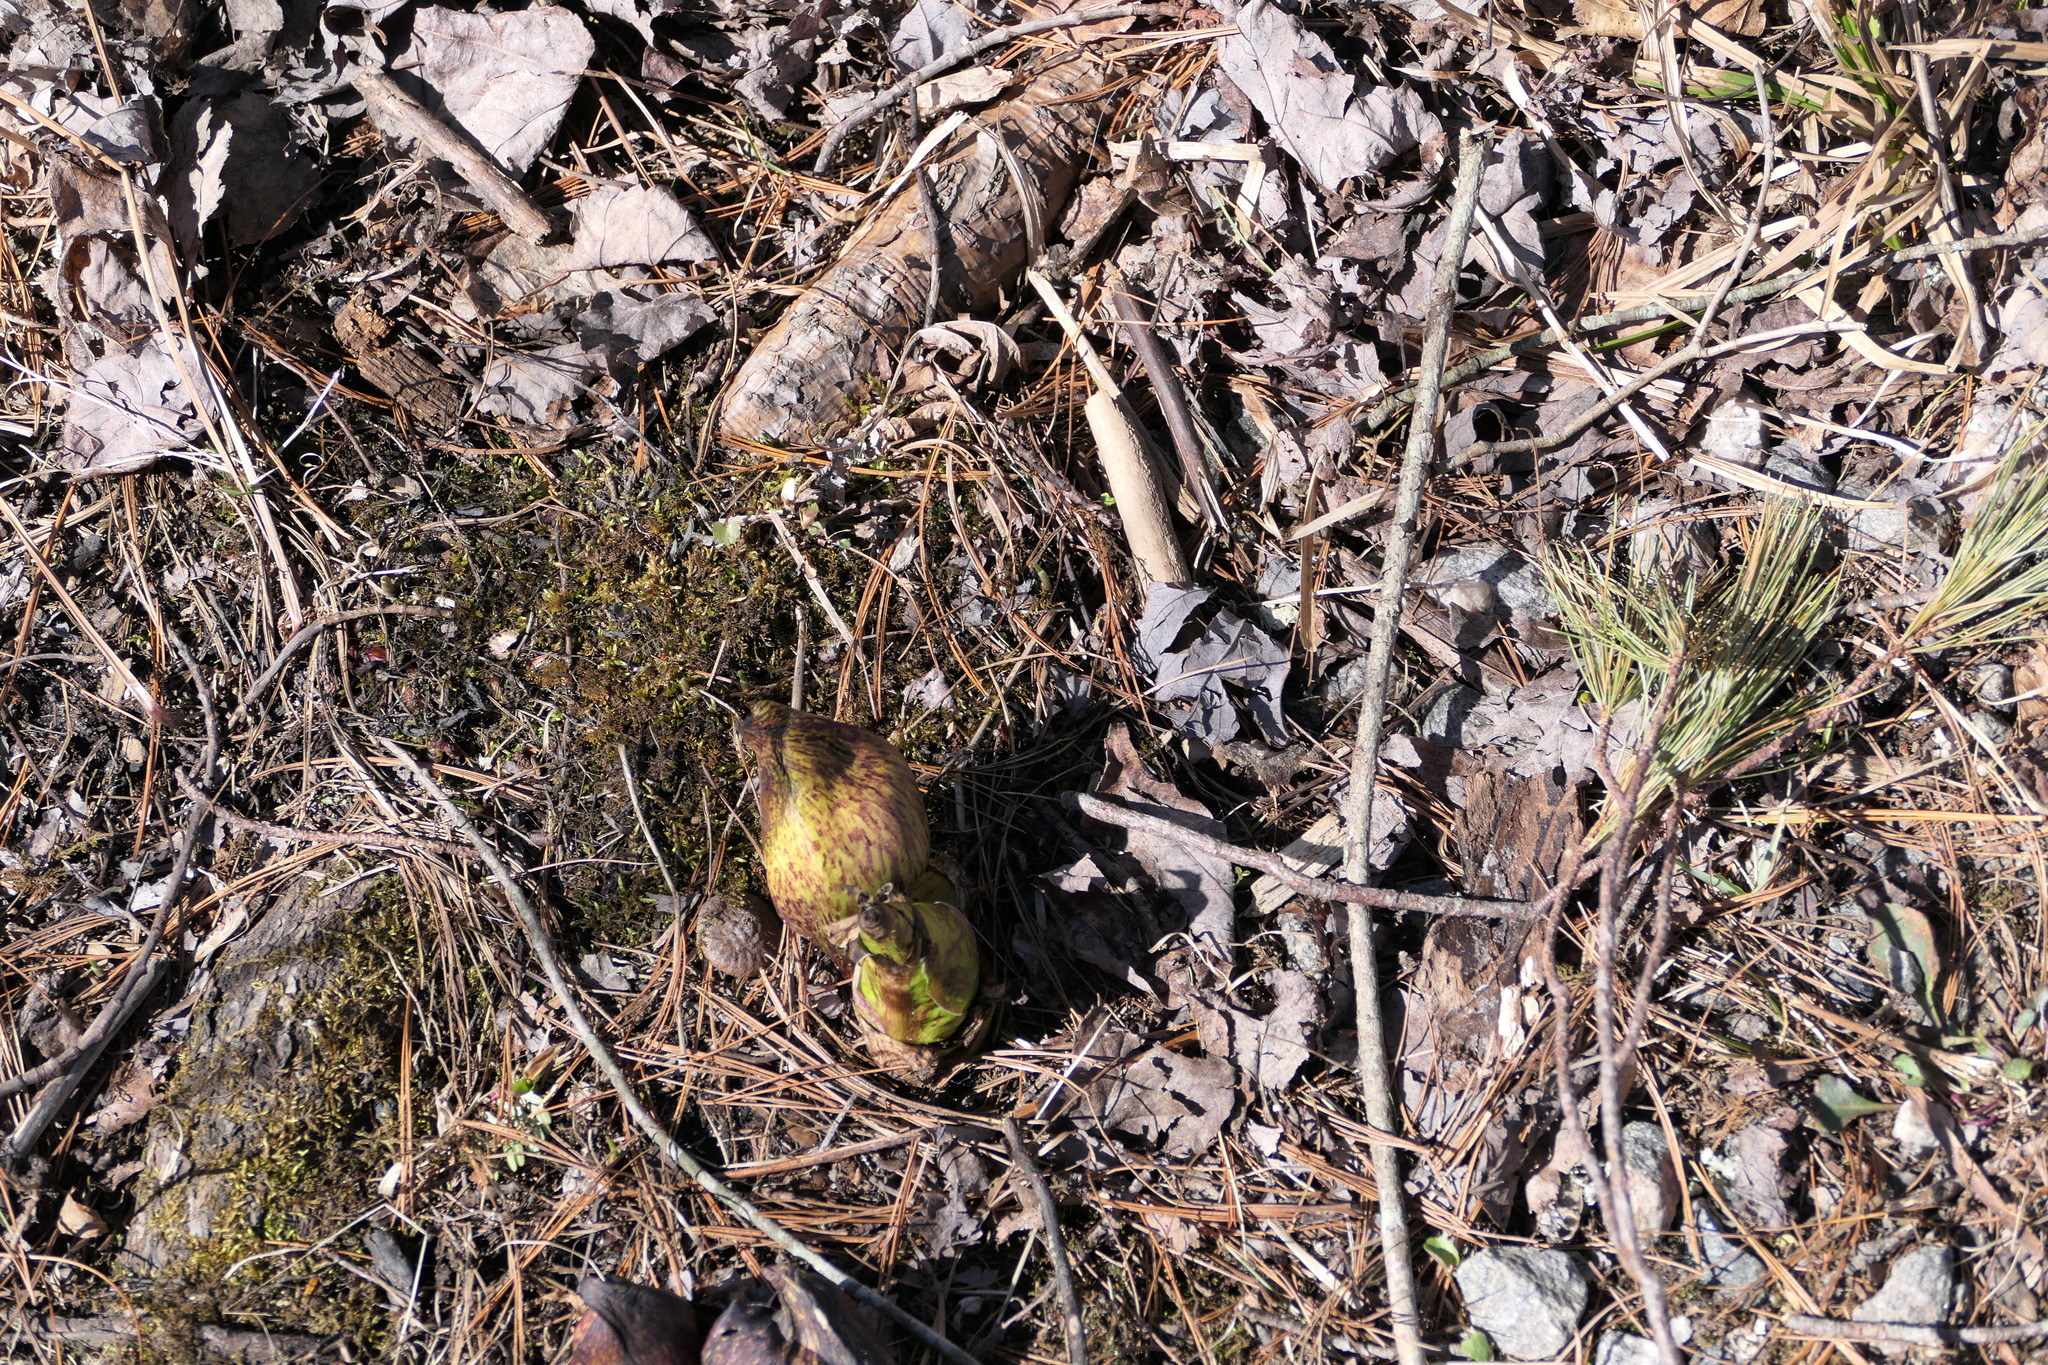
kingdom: Plantae
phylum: Tracheophyta
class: Liliopsida
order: Alismatales
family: Araceae
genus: Symplocarpus
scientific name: Symplocarpus foetidus
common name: Eastern skunk cabbage
